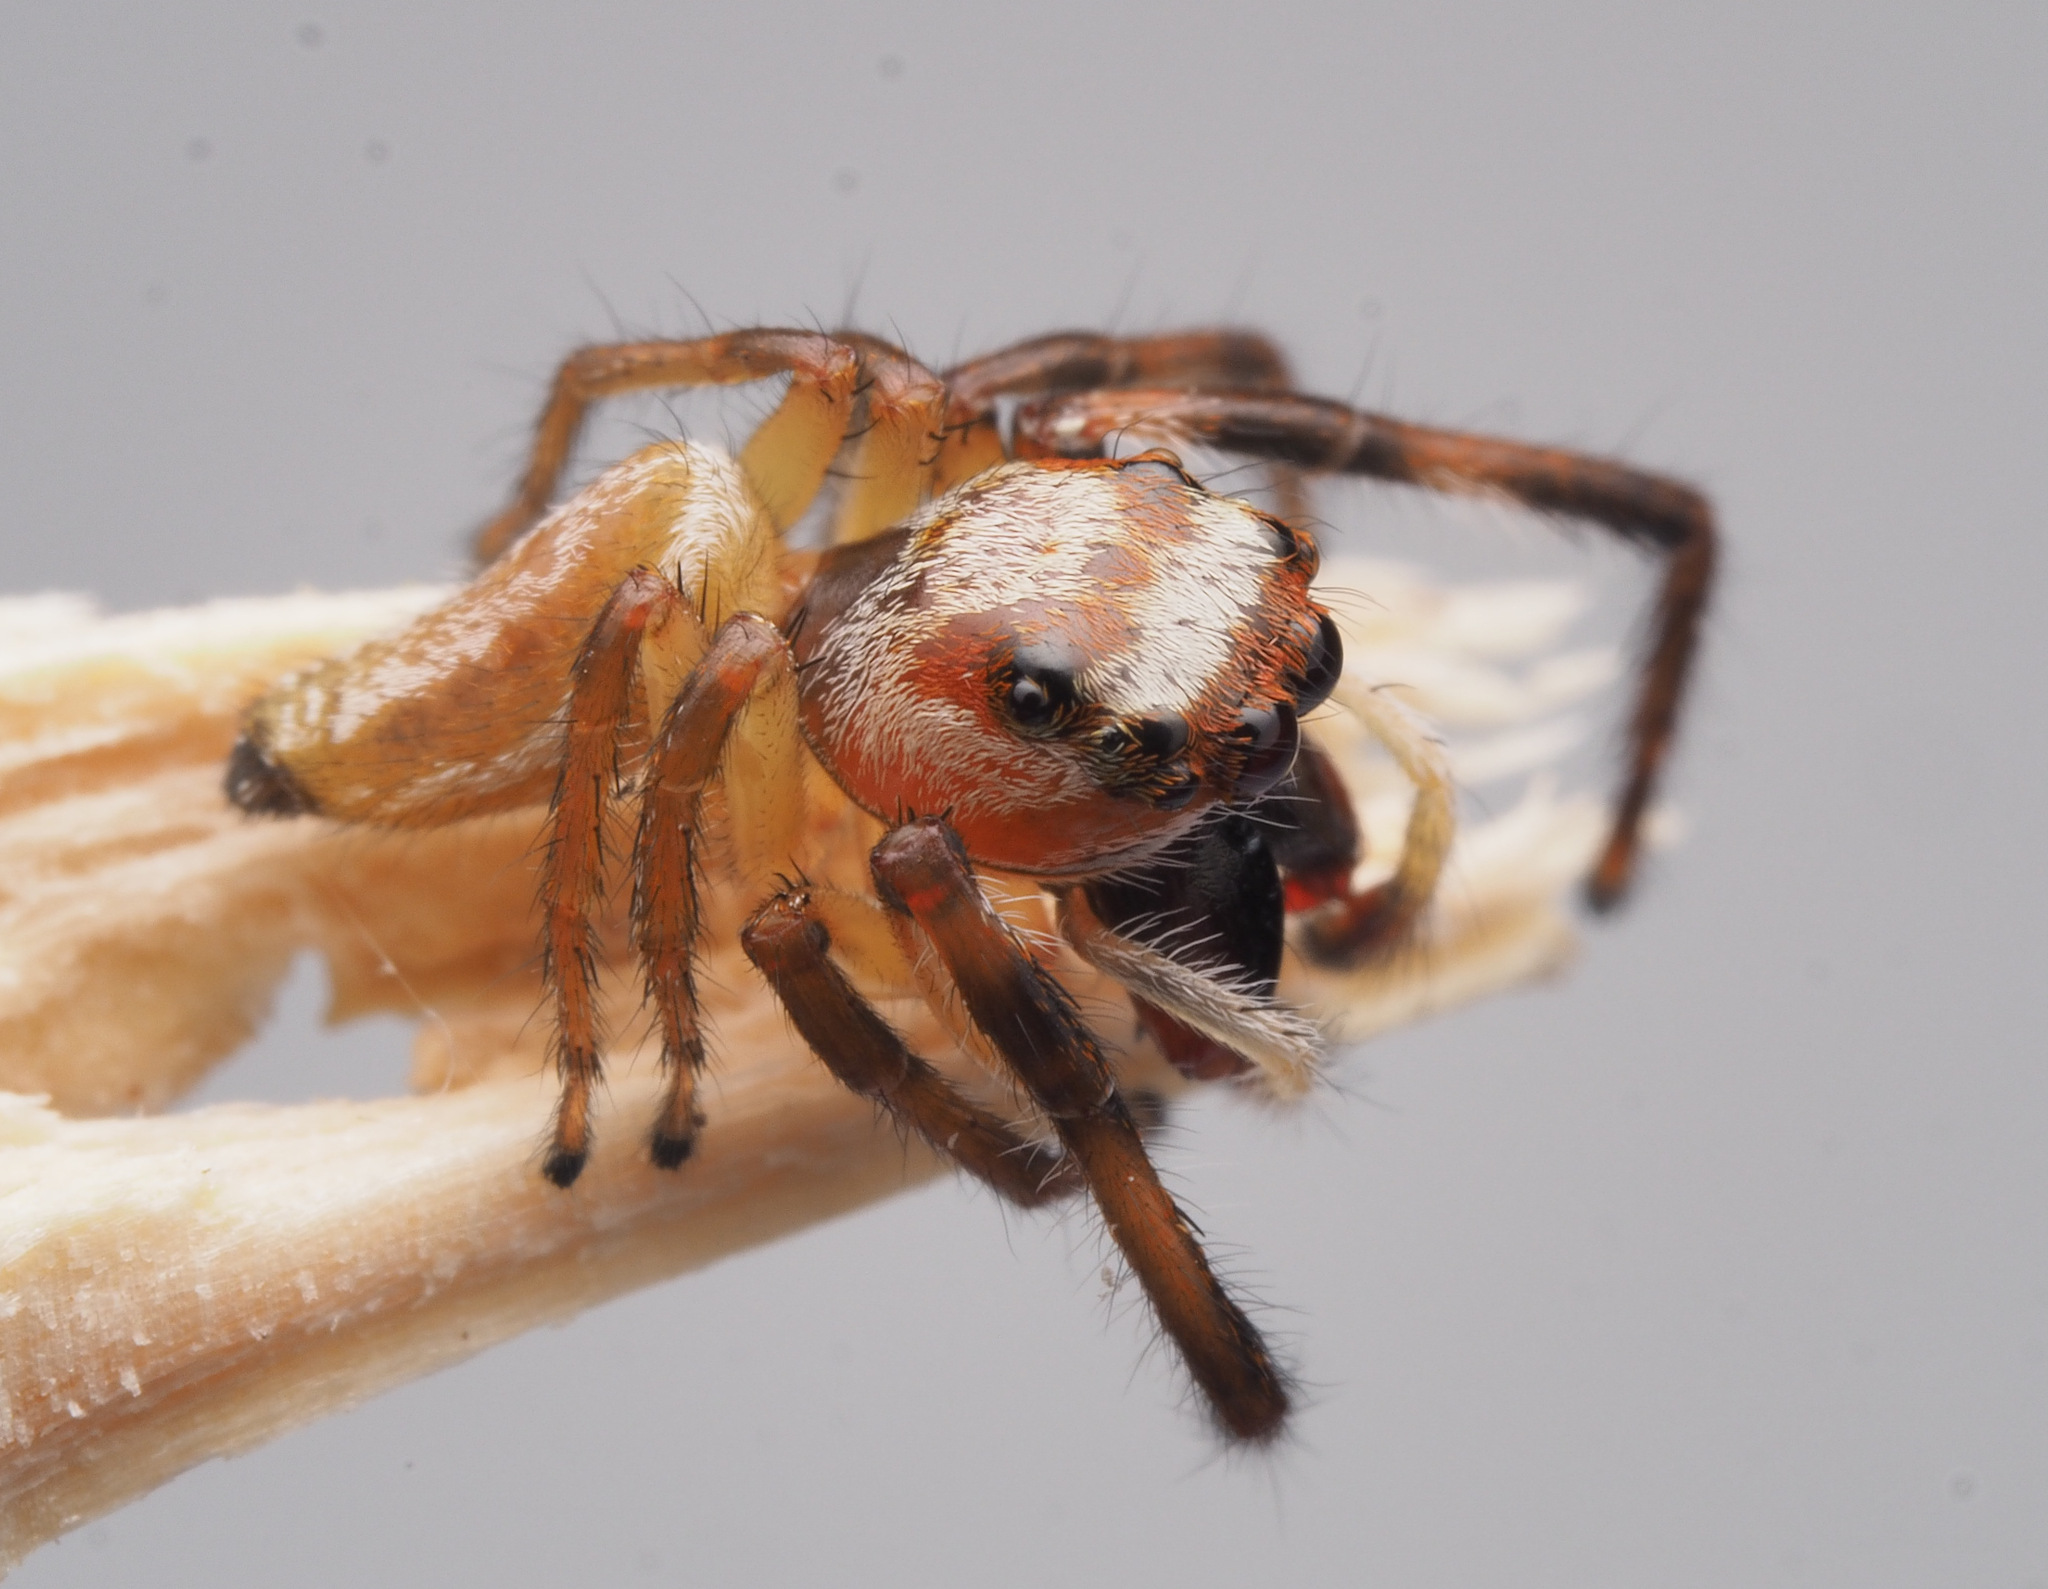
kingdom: Animalia
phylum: Arthropoda
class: Arachnida
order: Araneae
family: Salticidae
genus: Opisthoncus
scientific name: Opisthoncus abnormis
